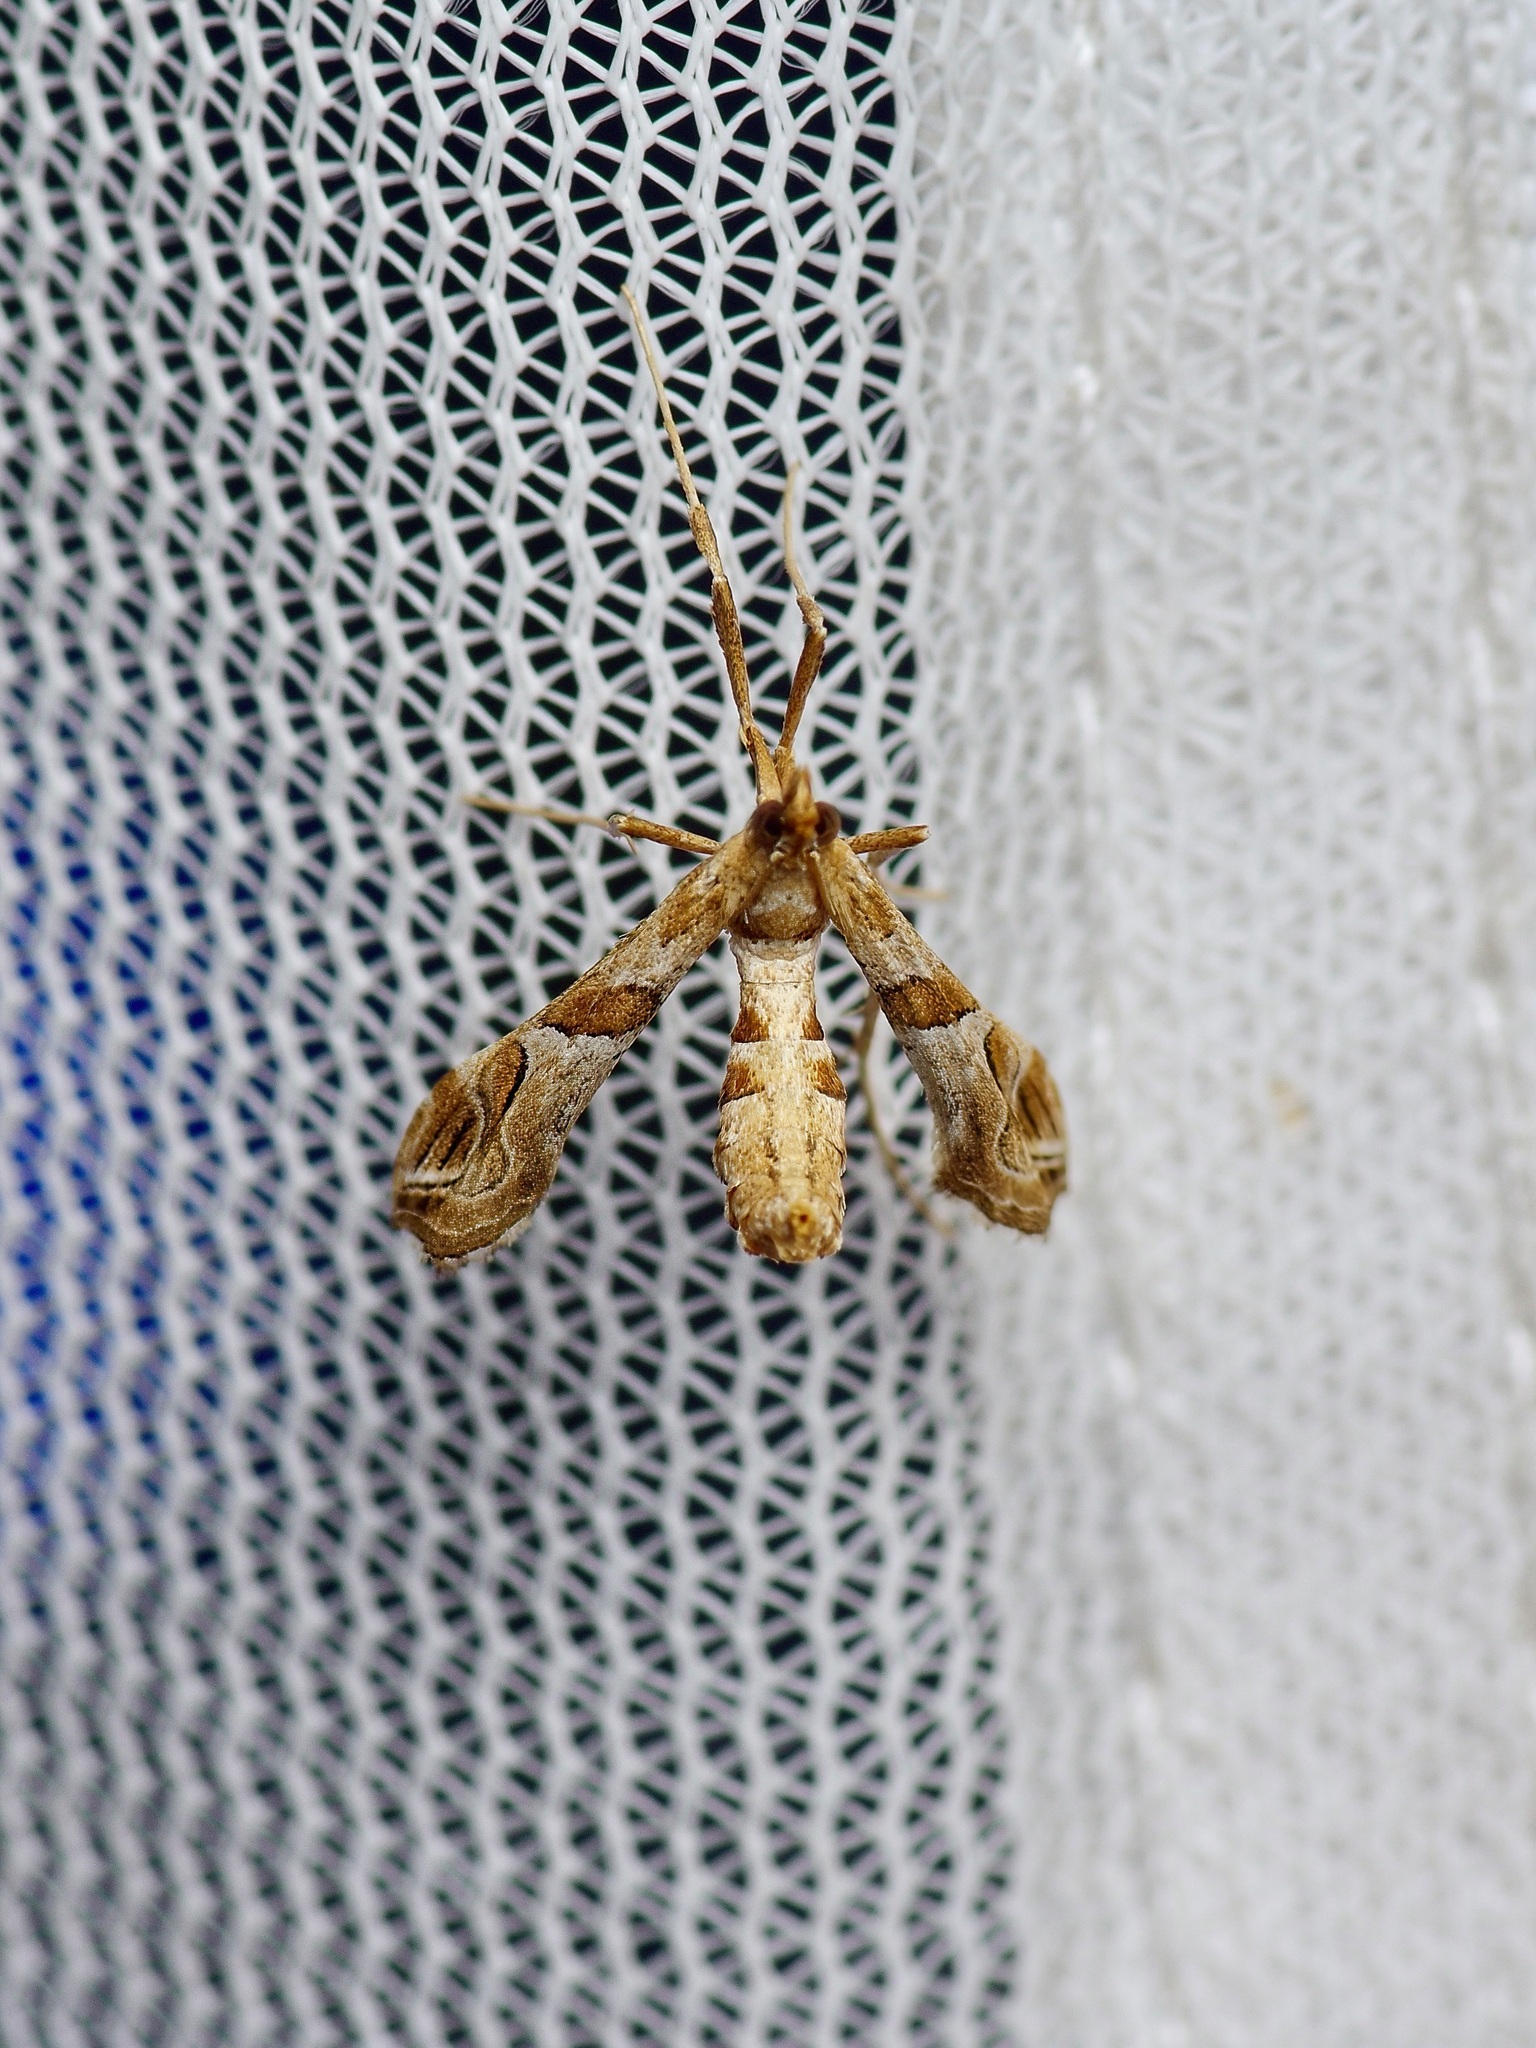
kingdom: Animalia
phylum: Arthropoda
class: Insecta
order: Lepidoptera
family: Crambidae
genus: Lineodes
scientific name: Lineodes interrupta
